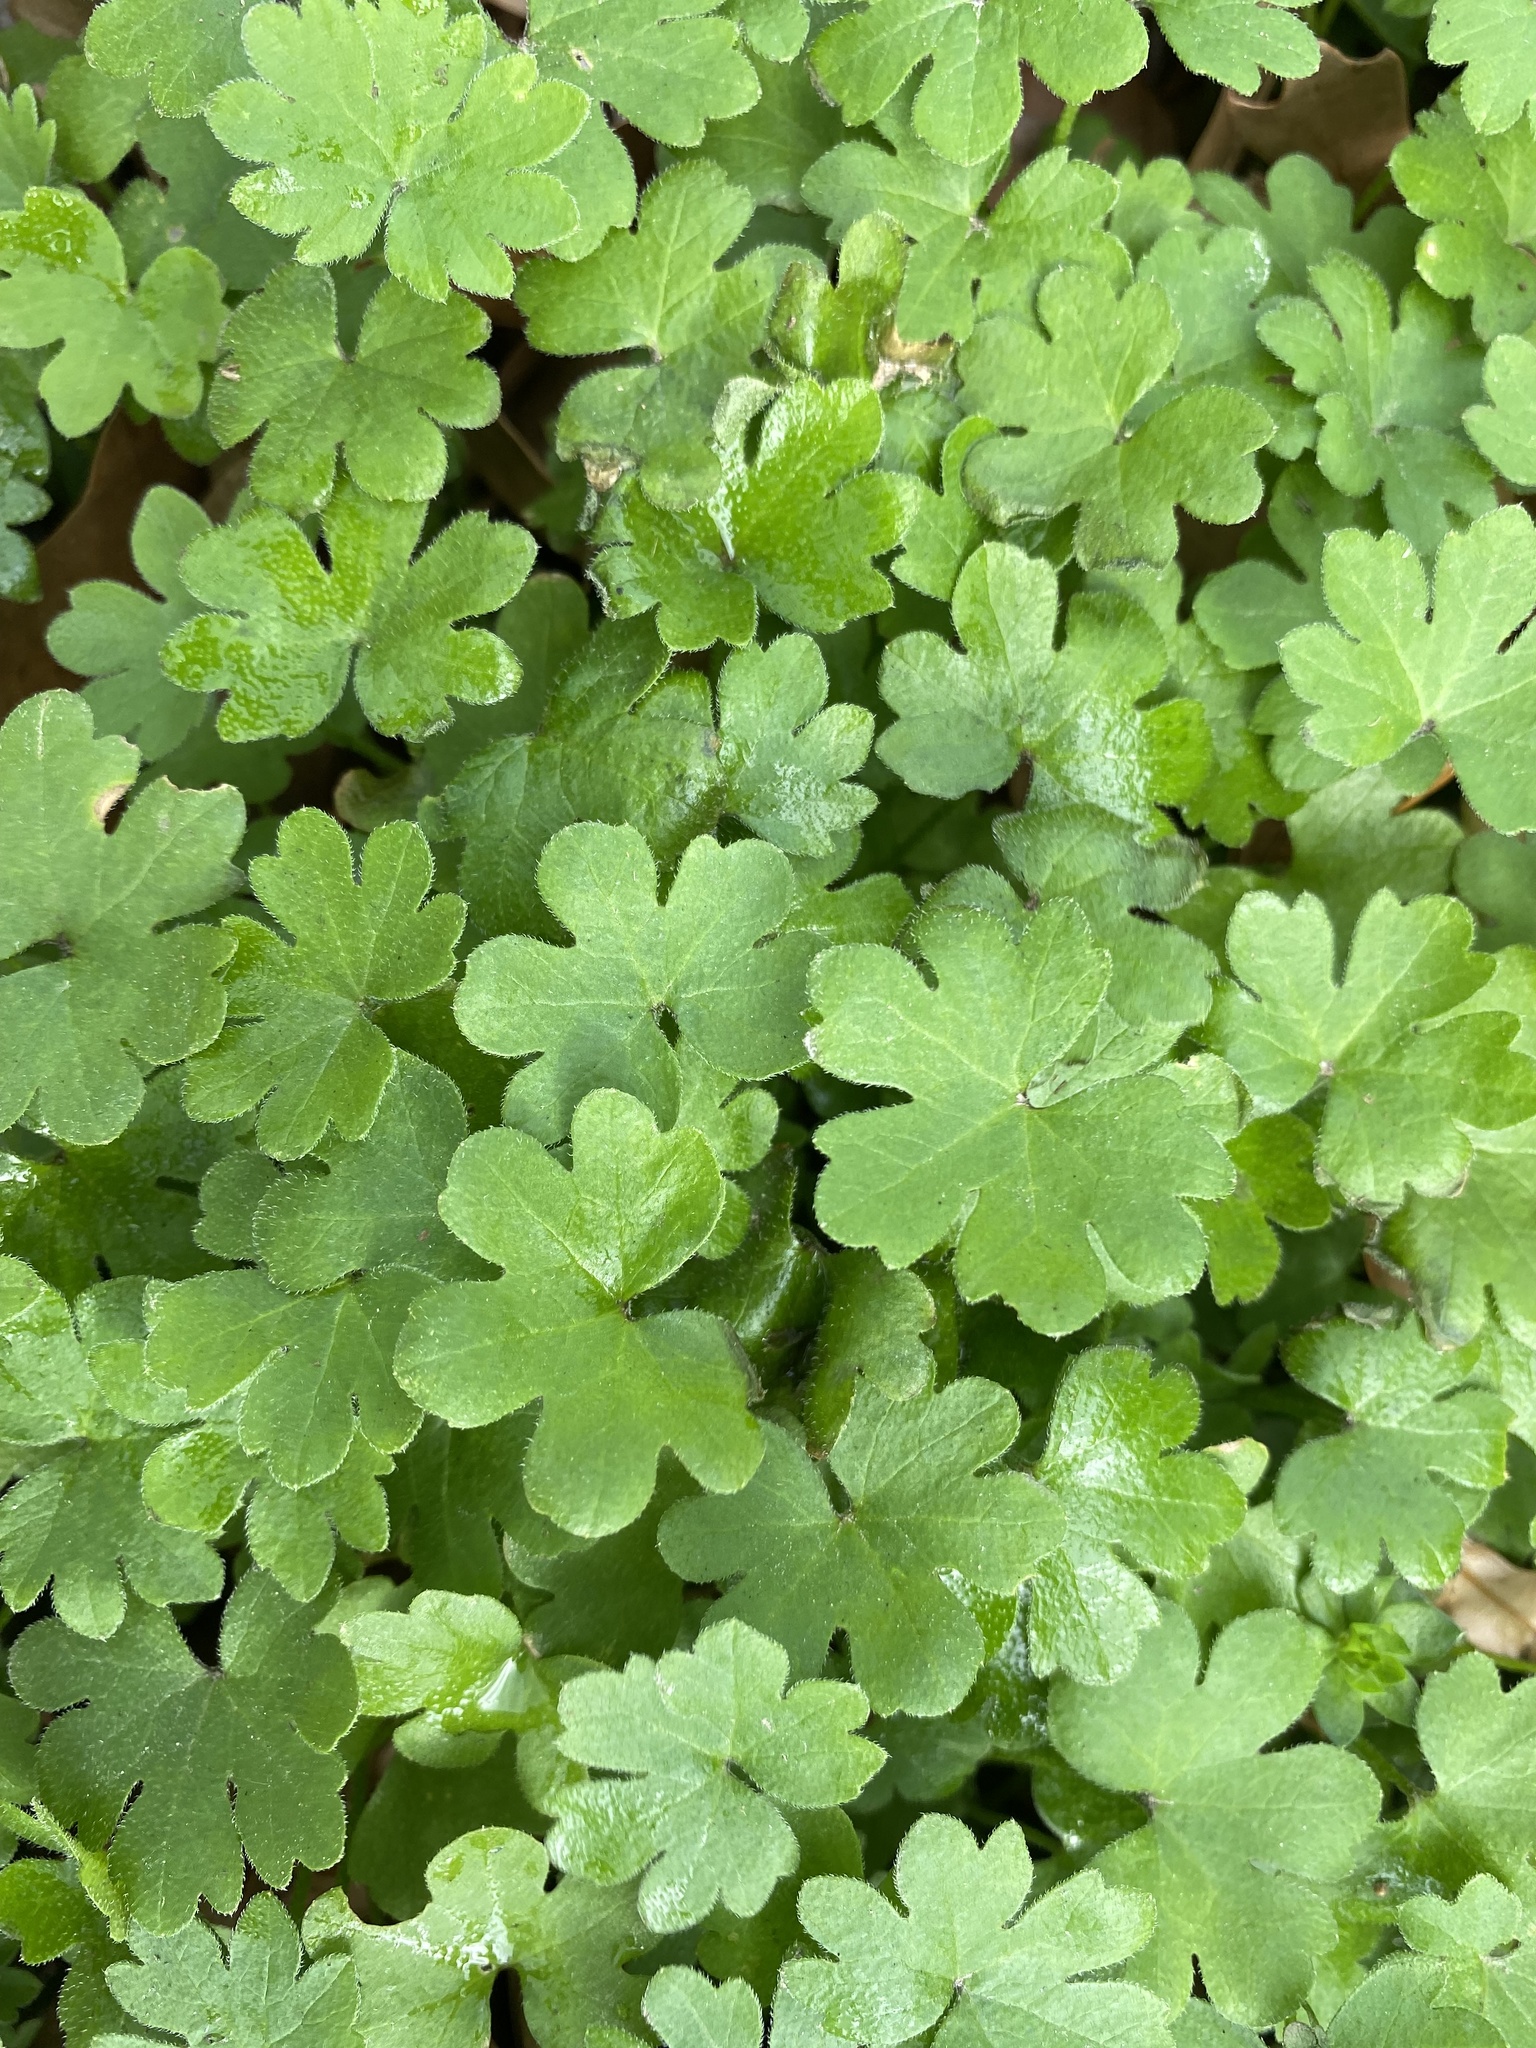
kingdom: Plantae
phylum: Tracheophyta
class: Magnoliopsida
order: Apiales
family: Apiaceae
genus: Bowlesia
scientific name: Bowlesia incana
